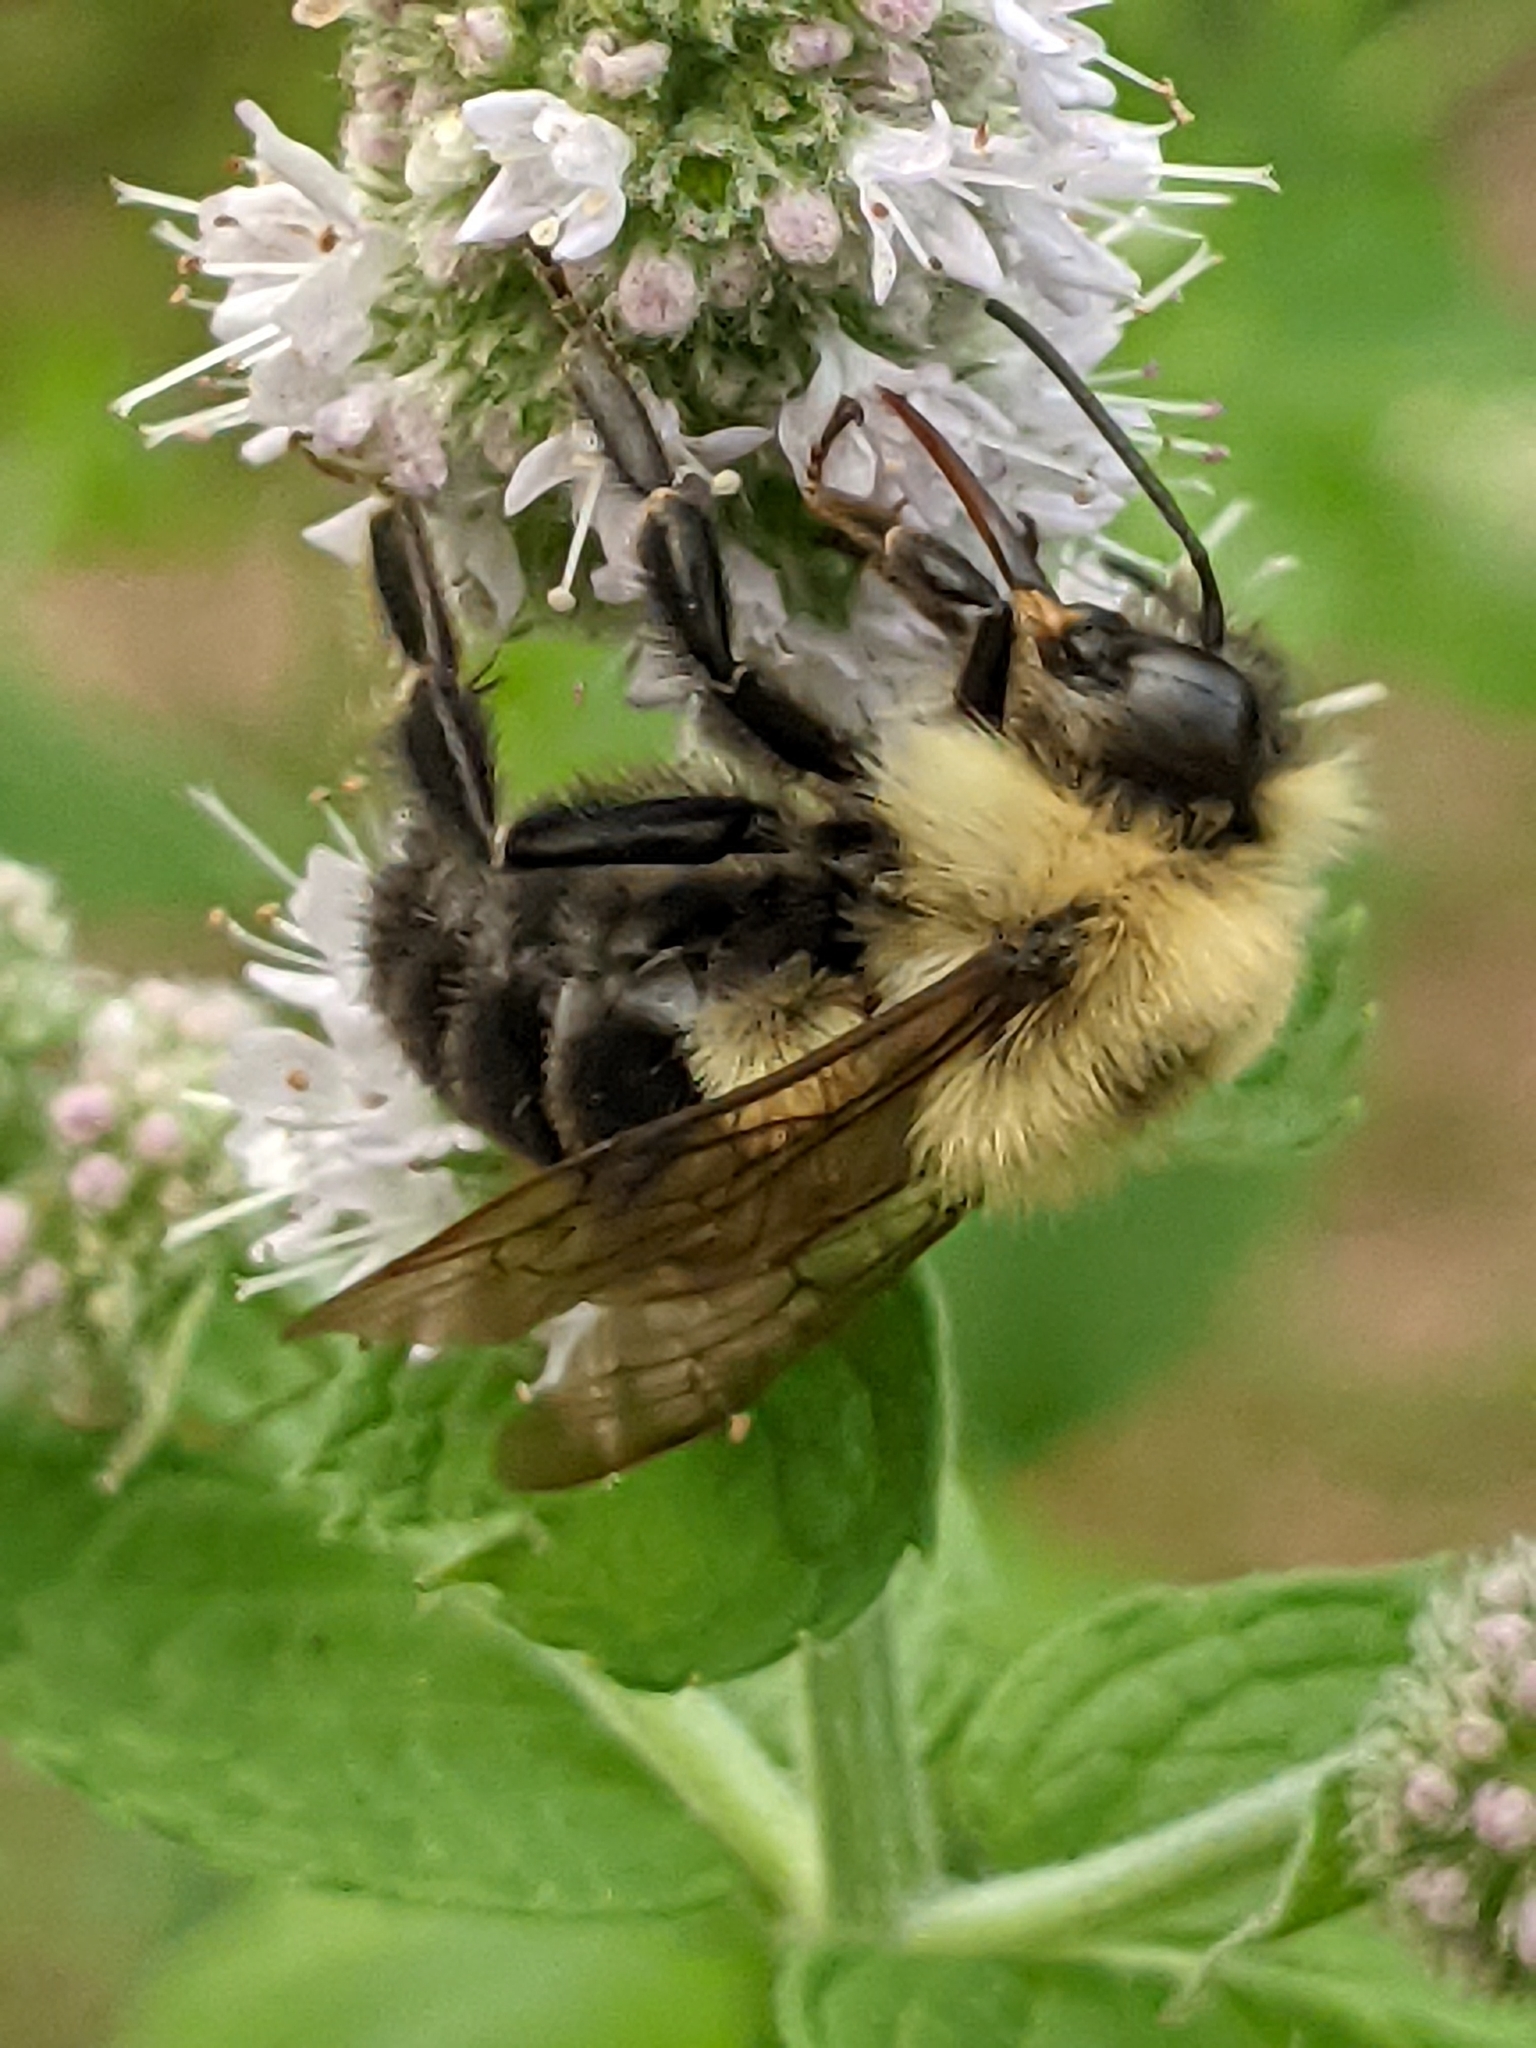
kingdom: Animalia
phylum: Arthropoda
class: Insecta
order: Hymenoptera
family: Apidae
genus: Bombus
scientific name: Bombus impatiens
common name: Common eastern bumble bee
